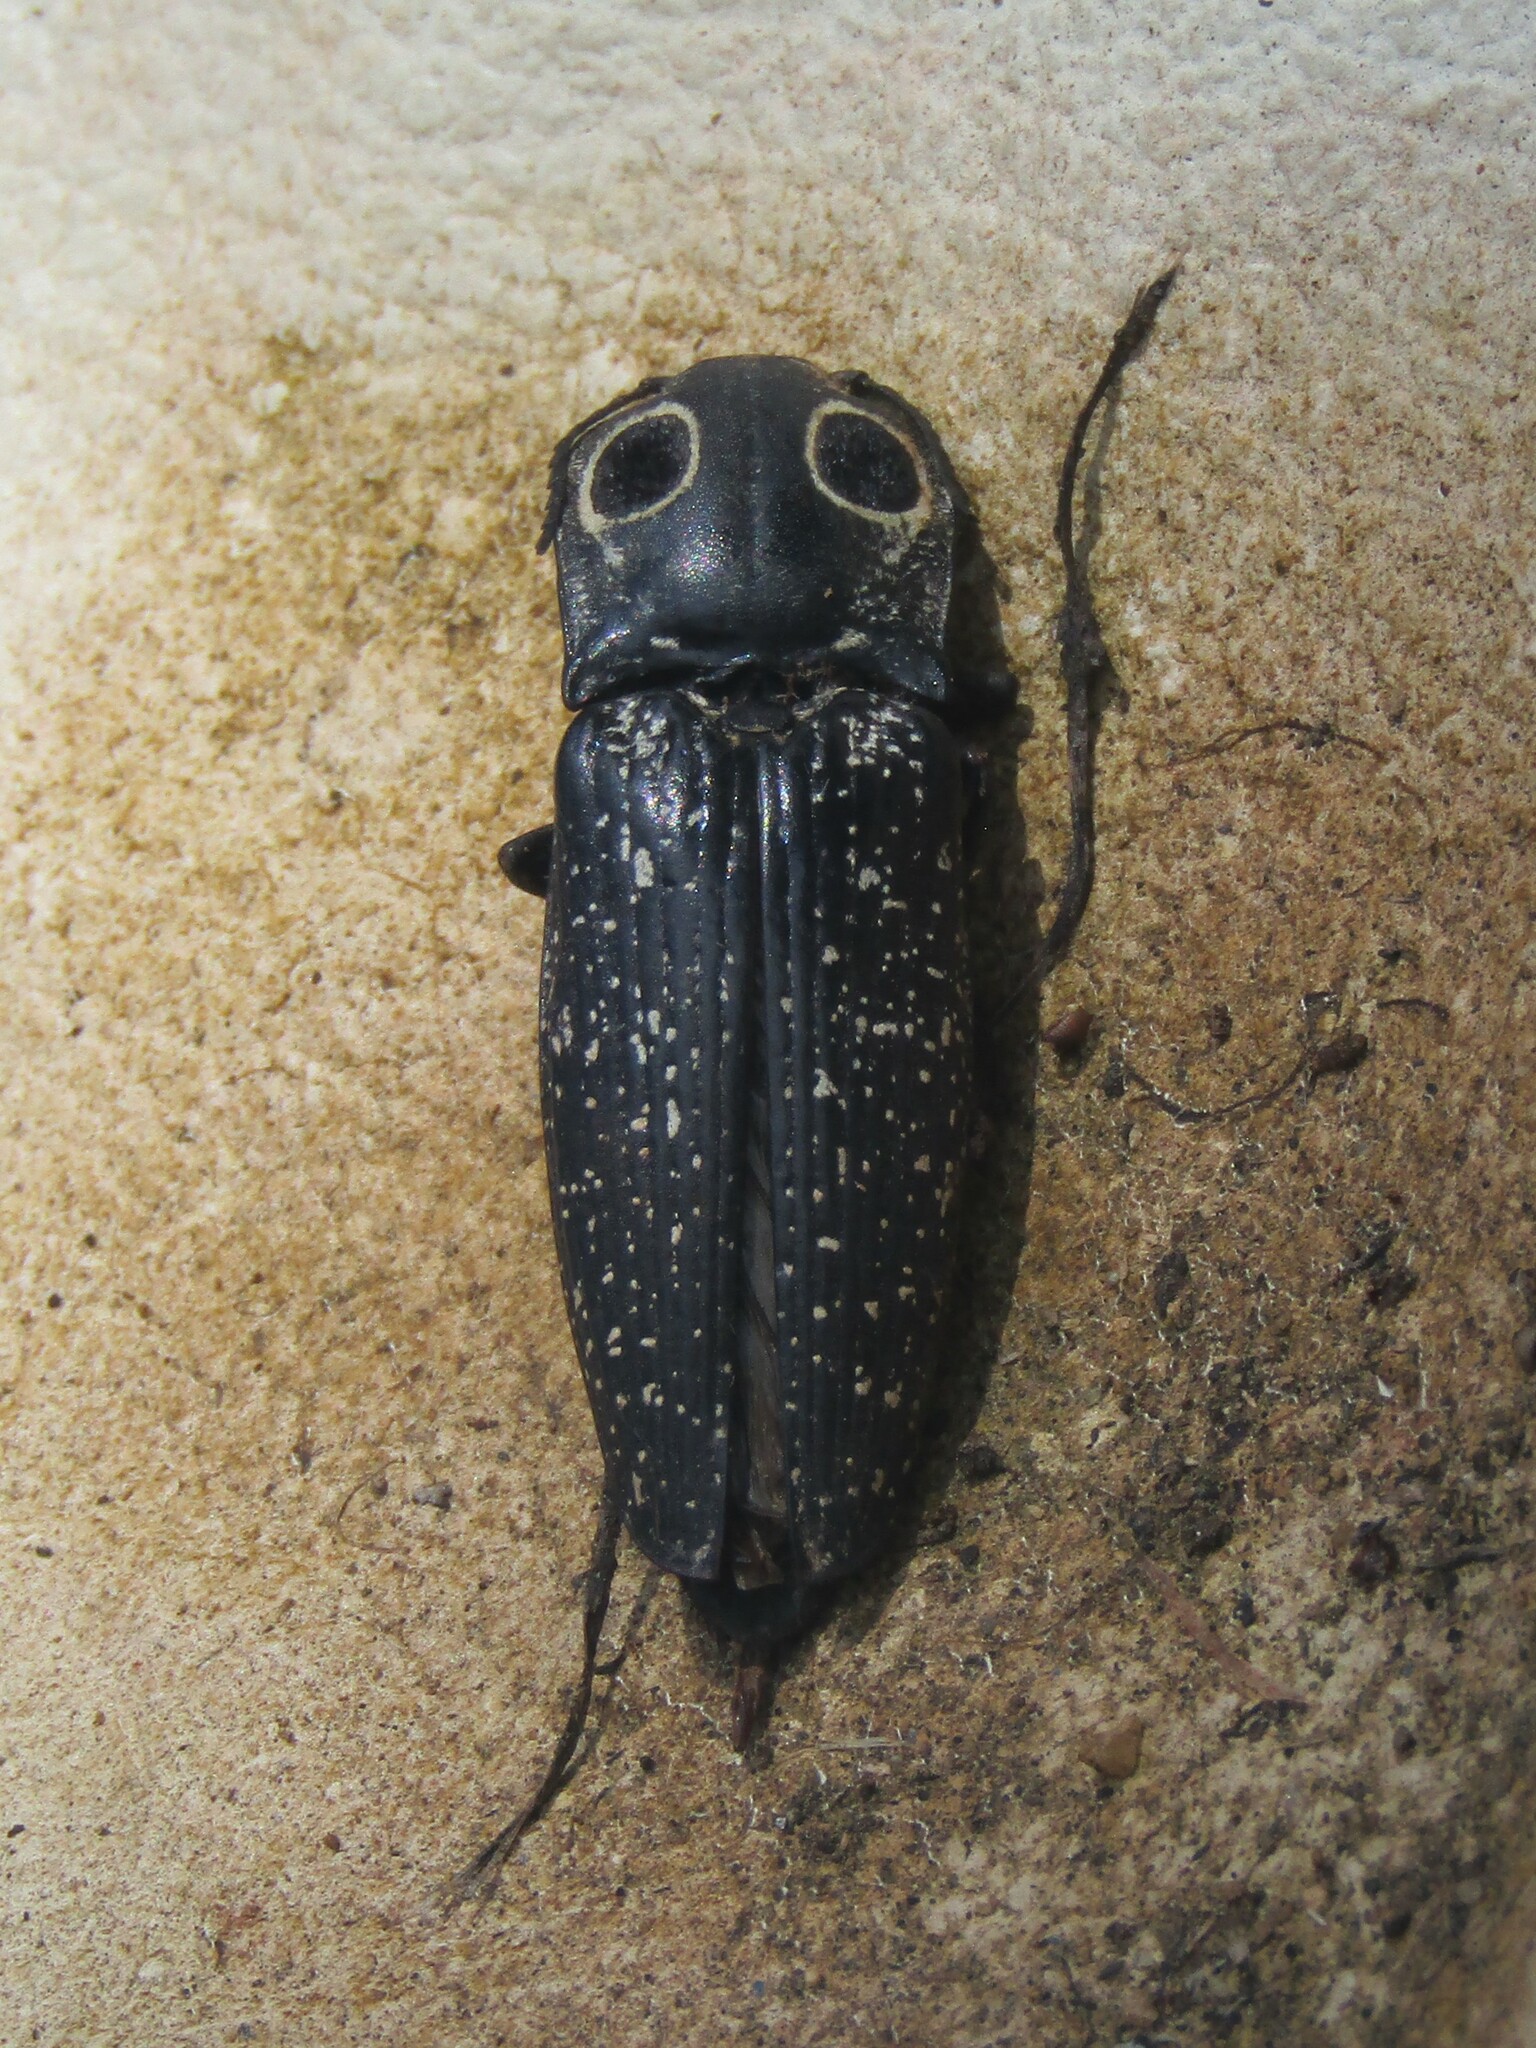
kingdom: Animalia
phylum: Arthropoda
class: Insecta
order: Coleoptera
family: Elateridae
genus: Alaus
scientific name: Alaus oculatus
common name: Eastern eyed click beetle
